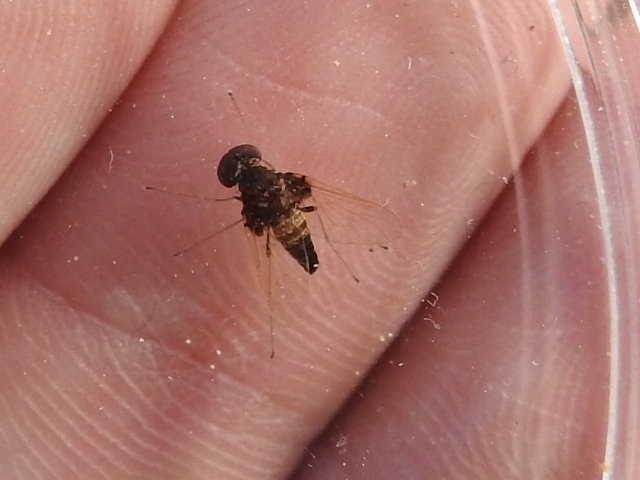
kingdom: Animalia
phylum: Arthropoda
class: Insecta
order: Diptera
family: Rhagionidae
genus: Chrysopilus
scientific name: Chrysopilus basilaris
